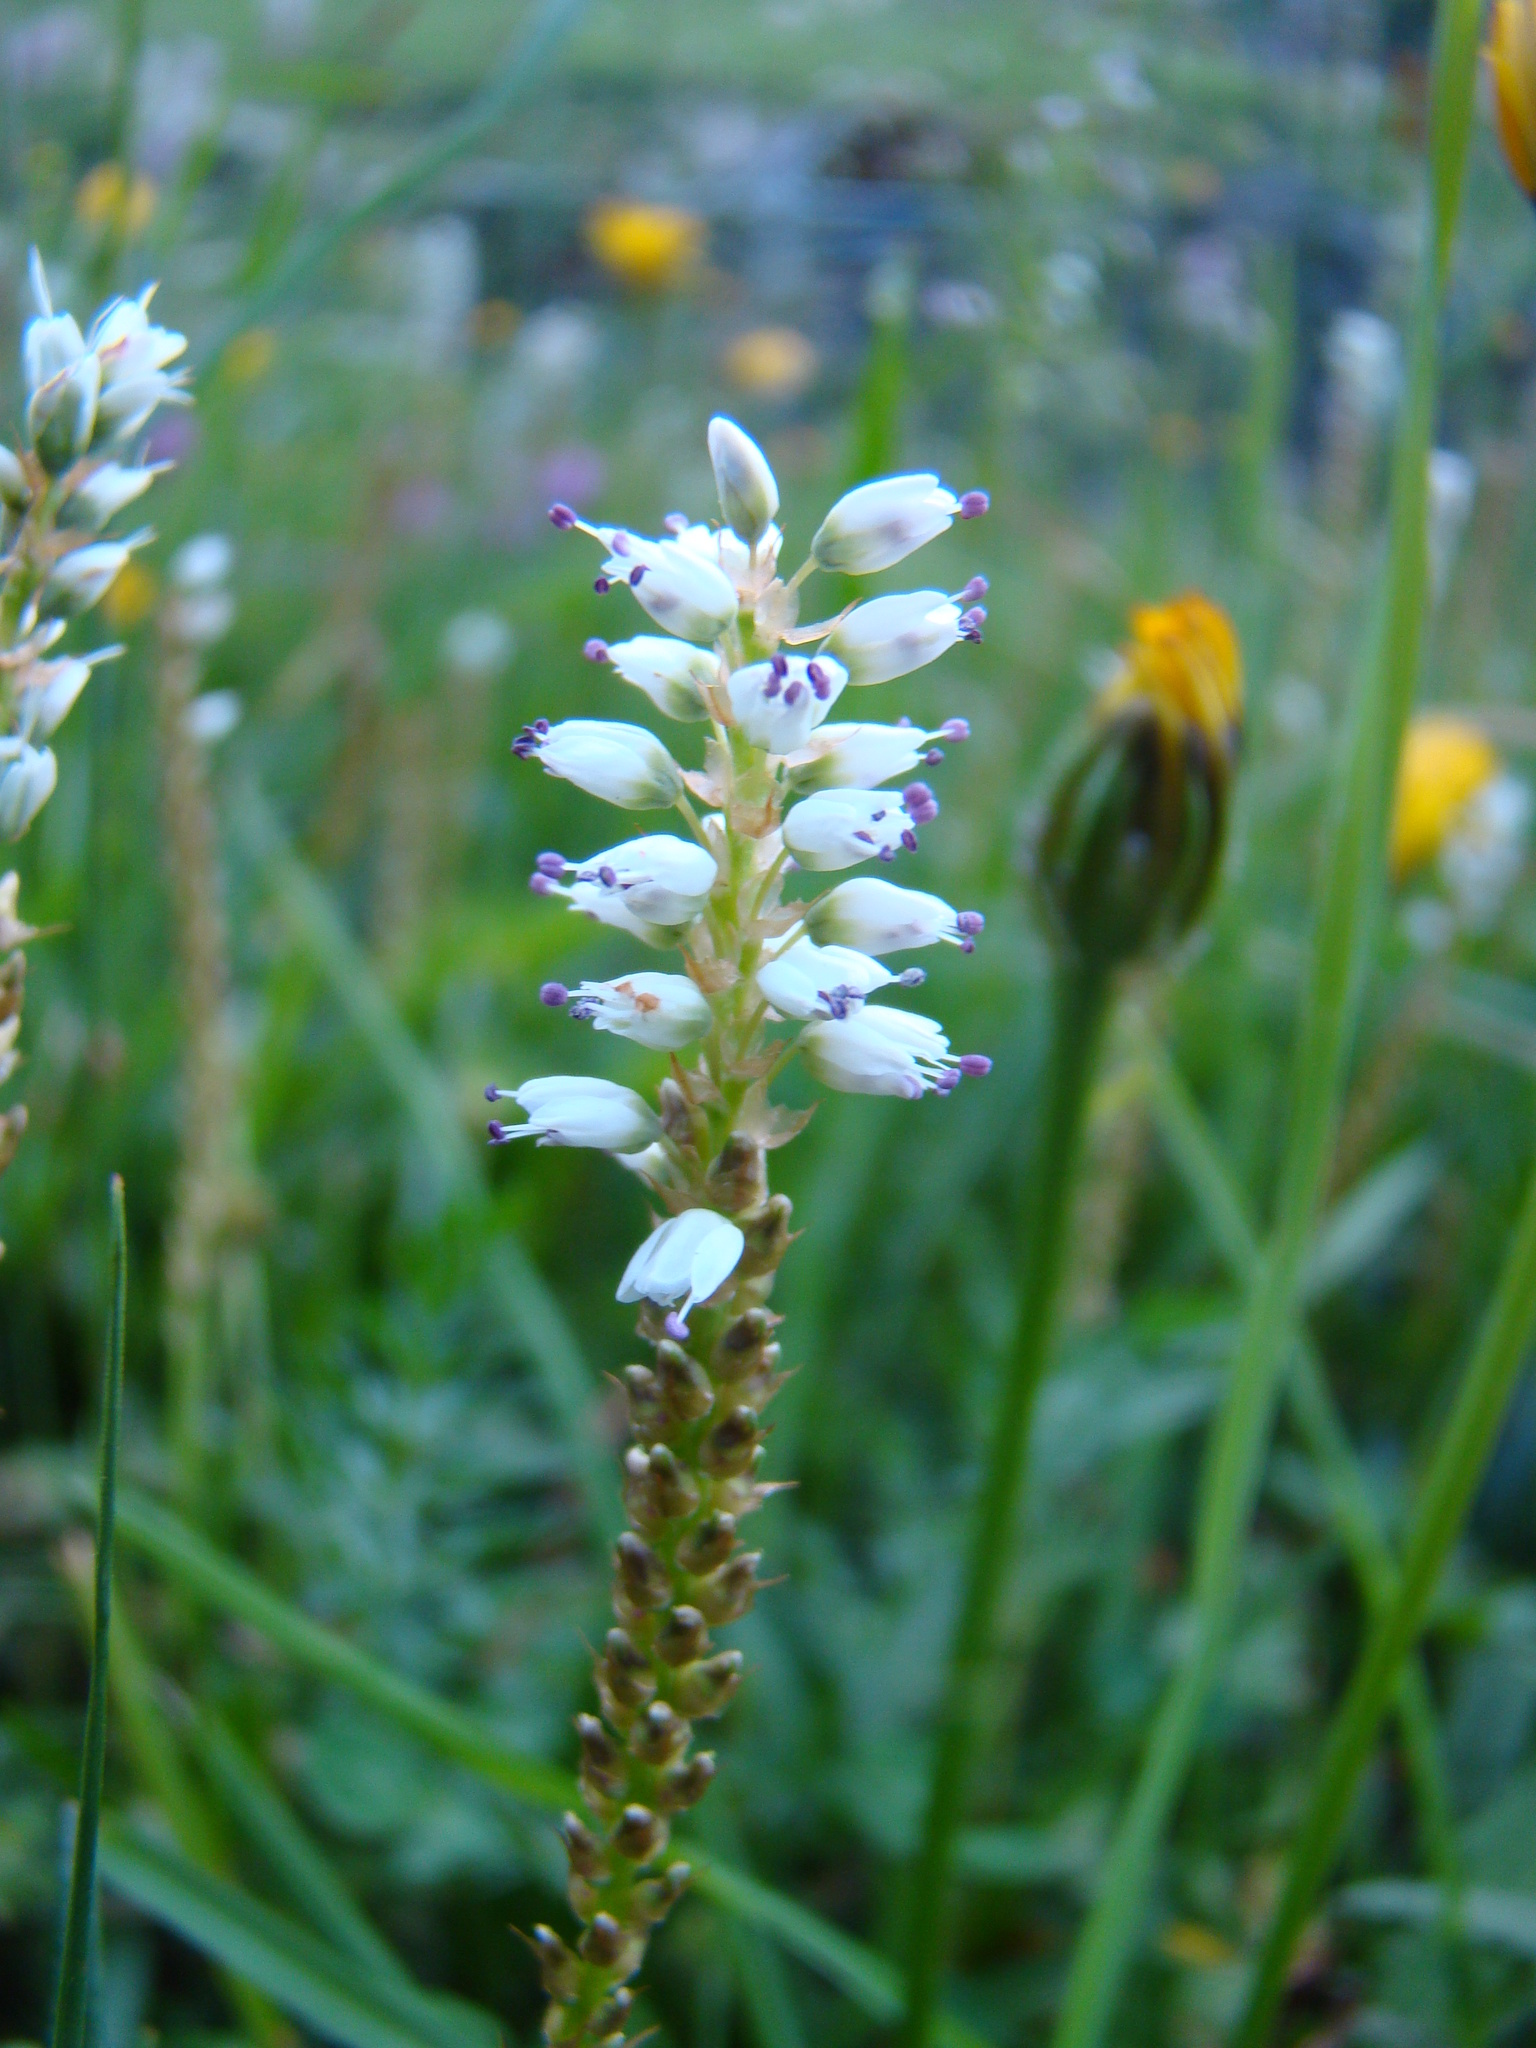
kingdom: Plantae
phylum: Tracheophyta
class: Magnoliopsida
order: Caryophyllales
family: Polygonaceae
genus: Bistorta
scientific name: Bistorta vivipara
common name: Alpine bistort
